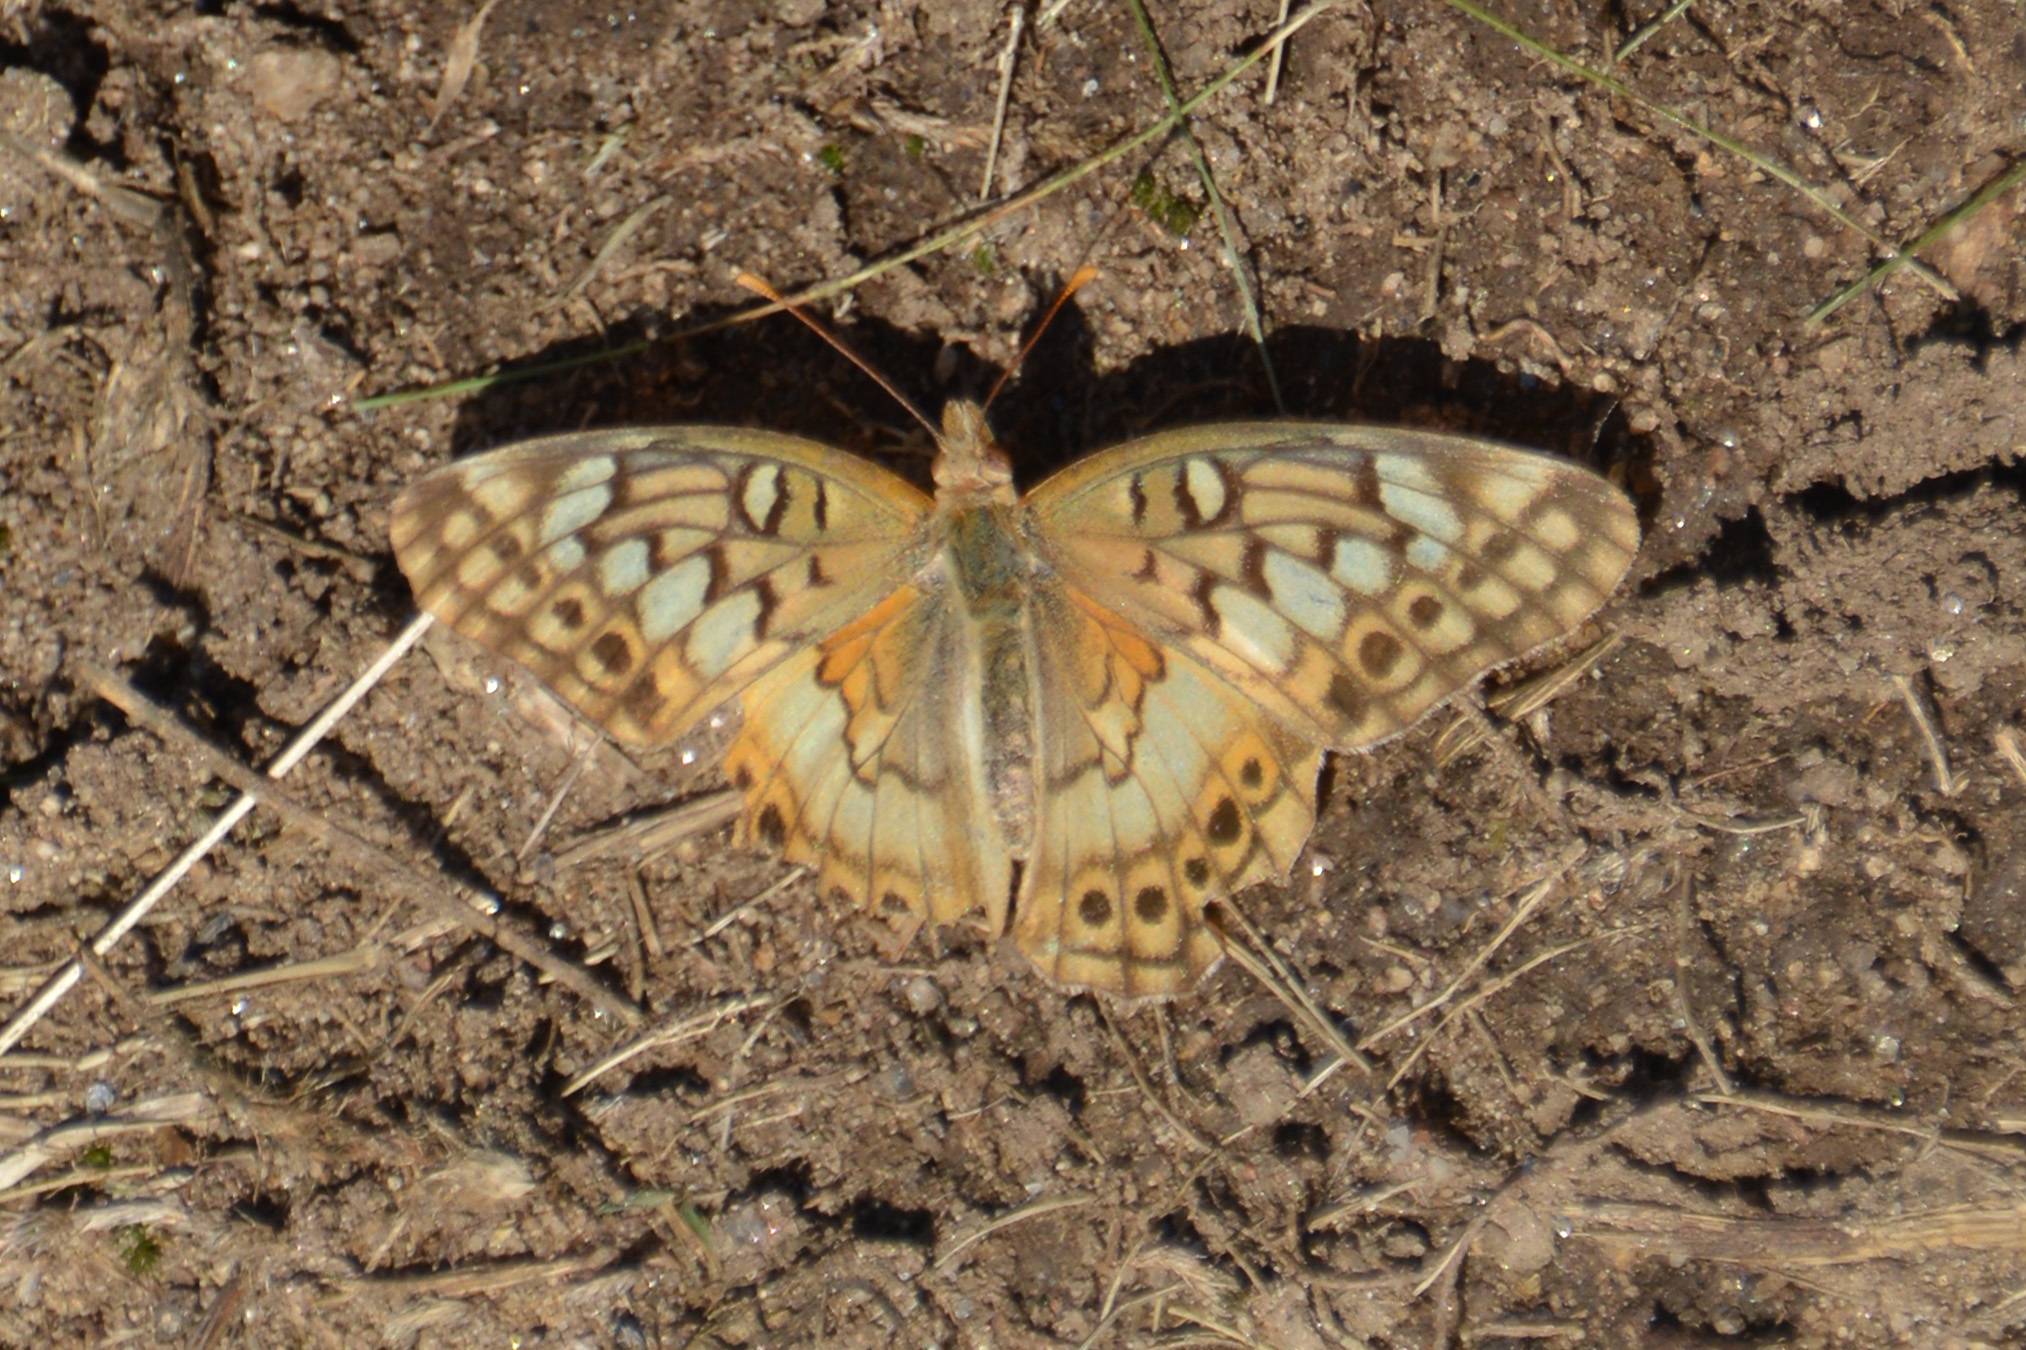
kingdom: Animalia
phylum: Arthropoda
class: Insecta
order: Lepidoptera
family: Nymphalidae
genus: Euptoieta
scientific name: Euptoieta hortensia
